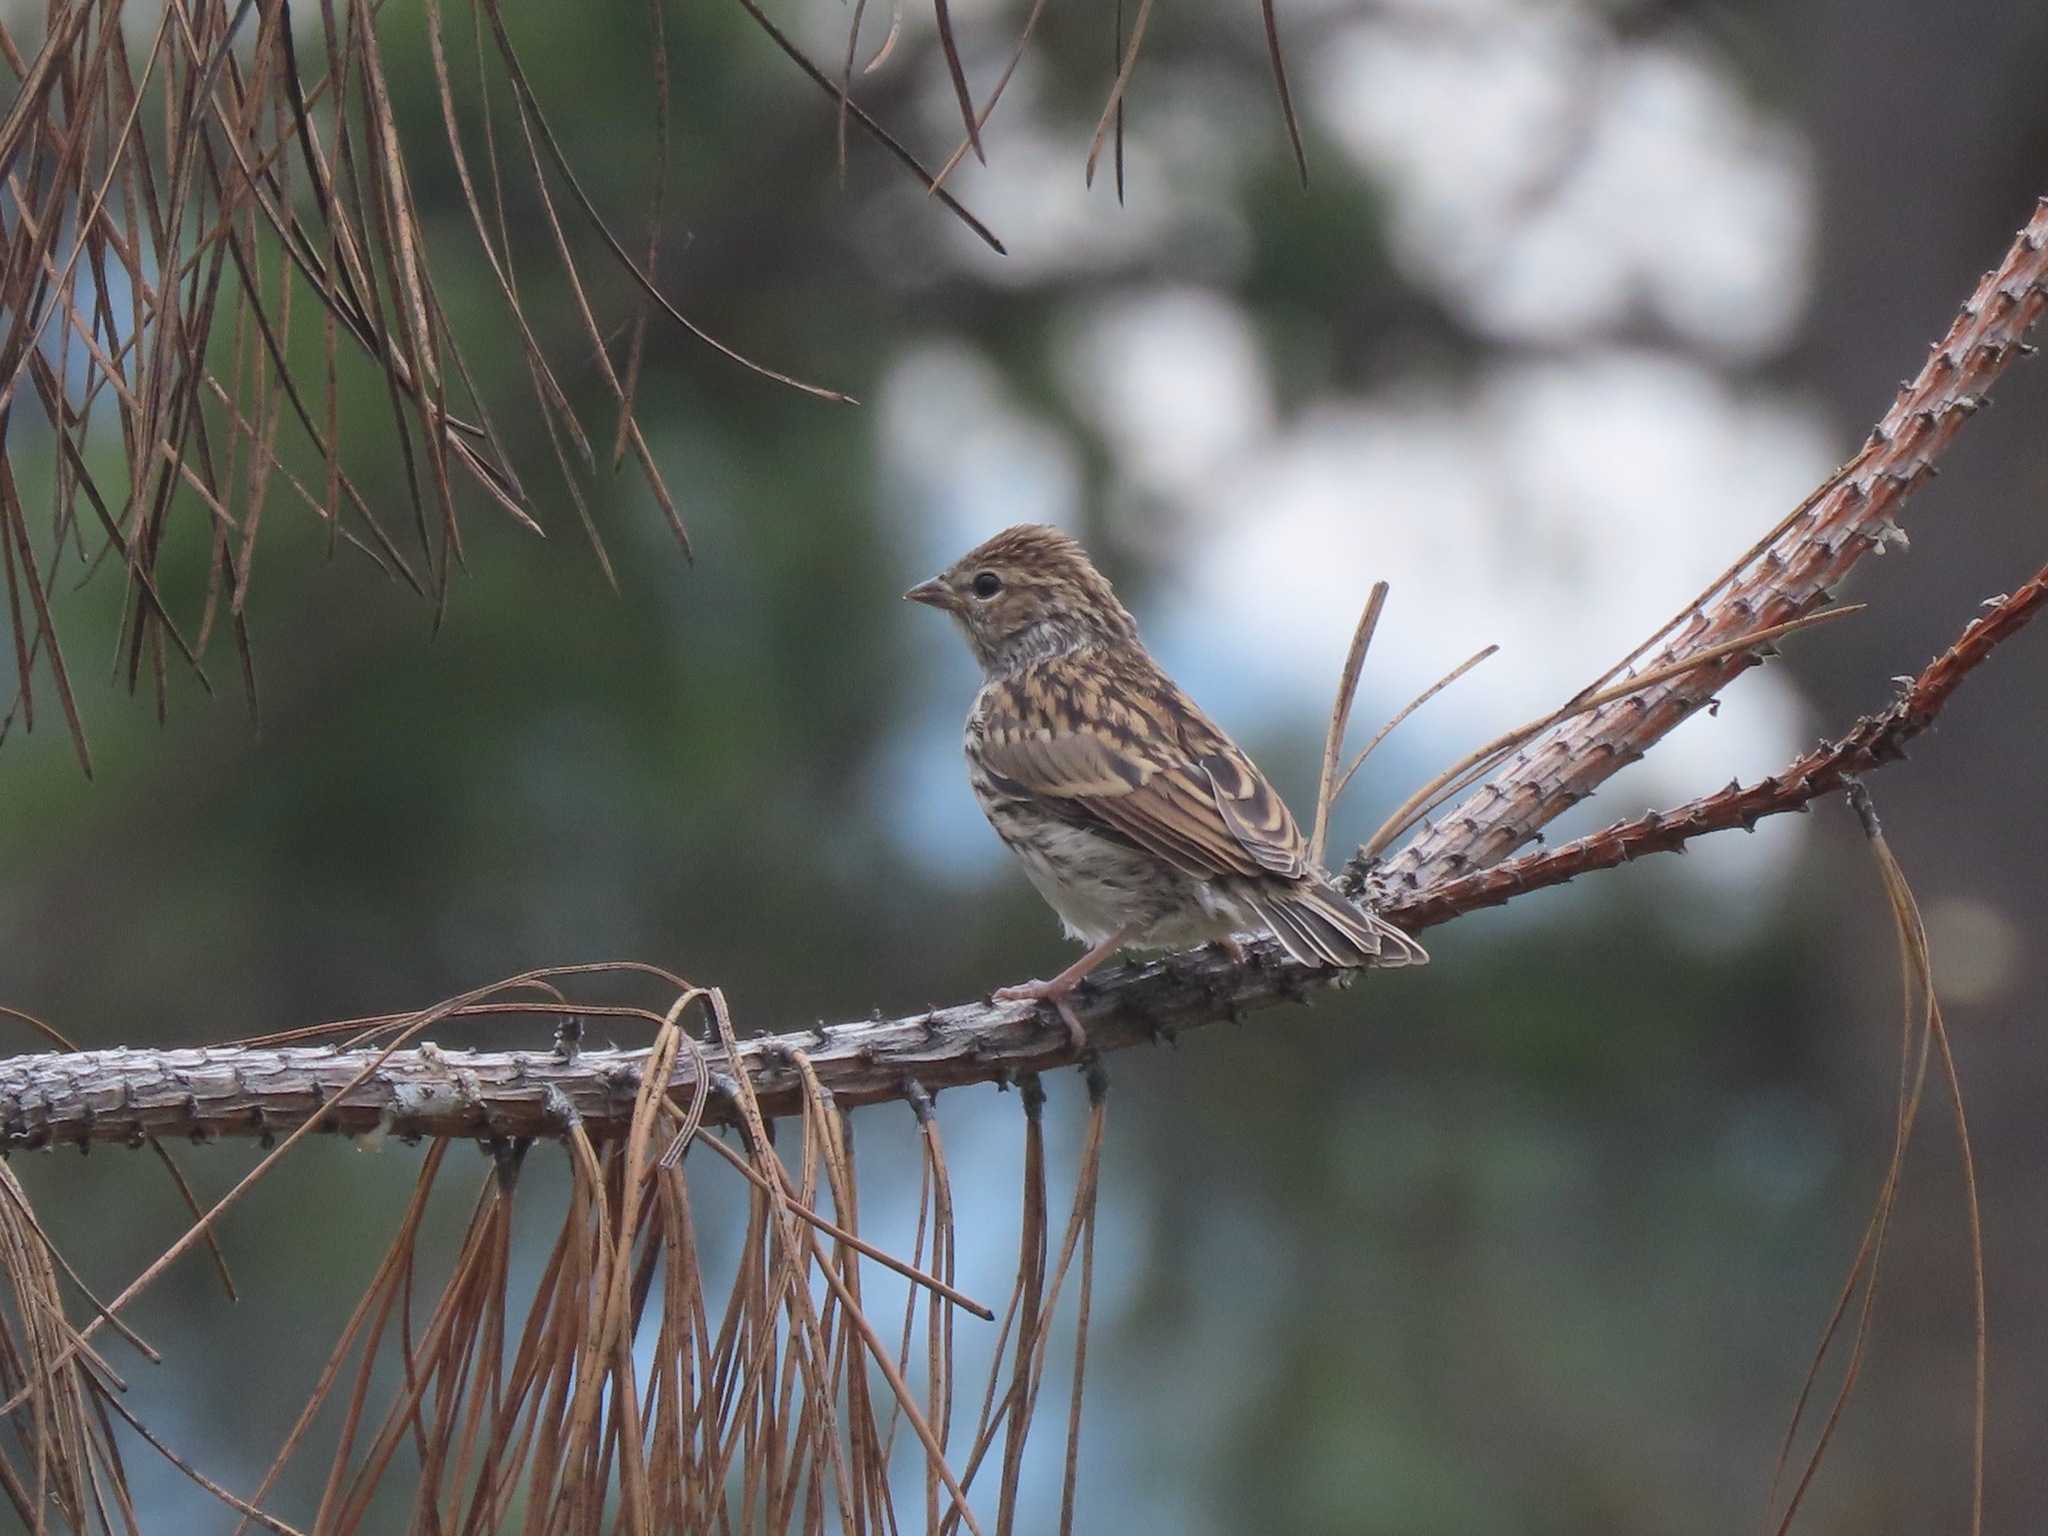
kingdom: Animalia
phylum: Chordata
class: Aves
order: Passeriformes
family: Passerellidae
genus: Spizella
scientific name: Spizella passerina
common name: Chipping sparrow
